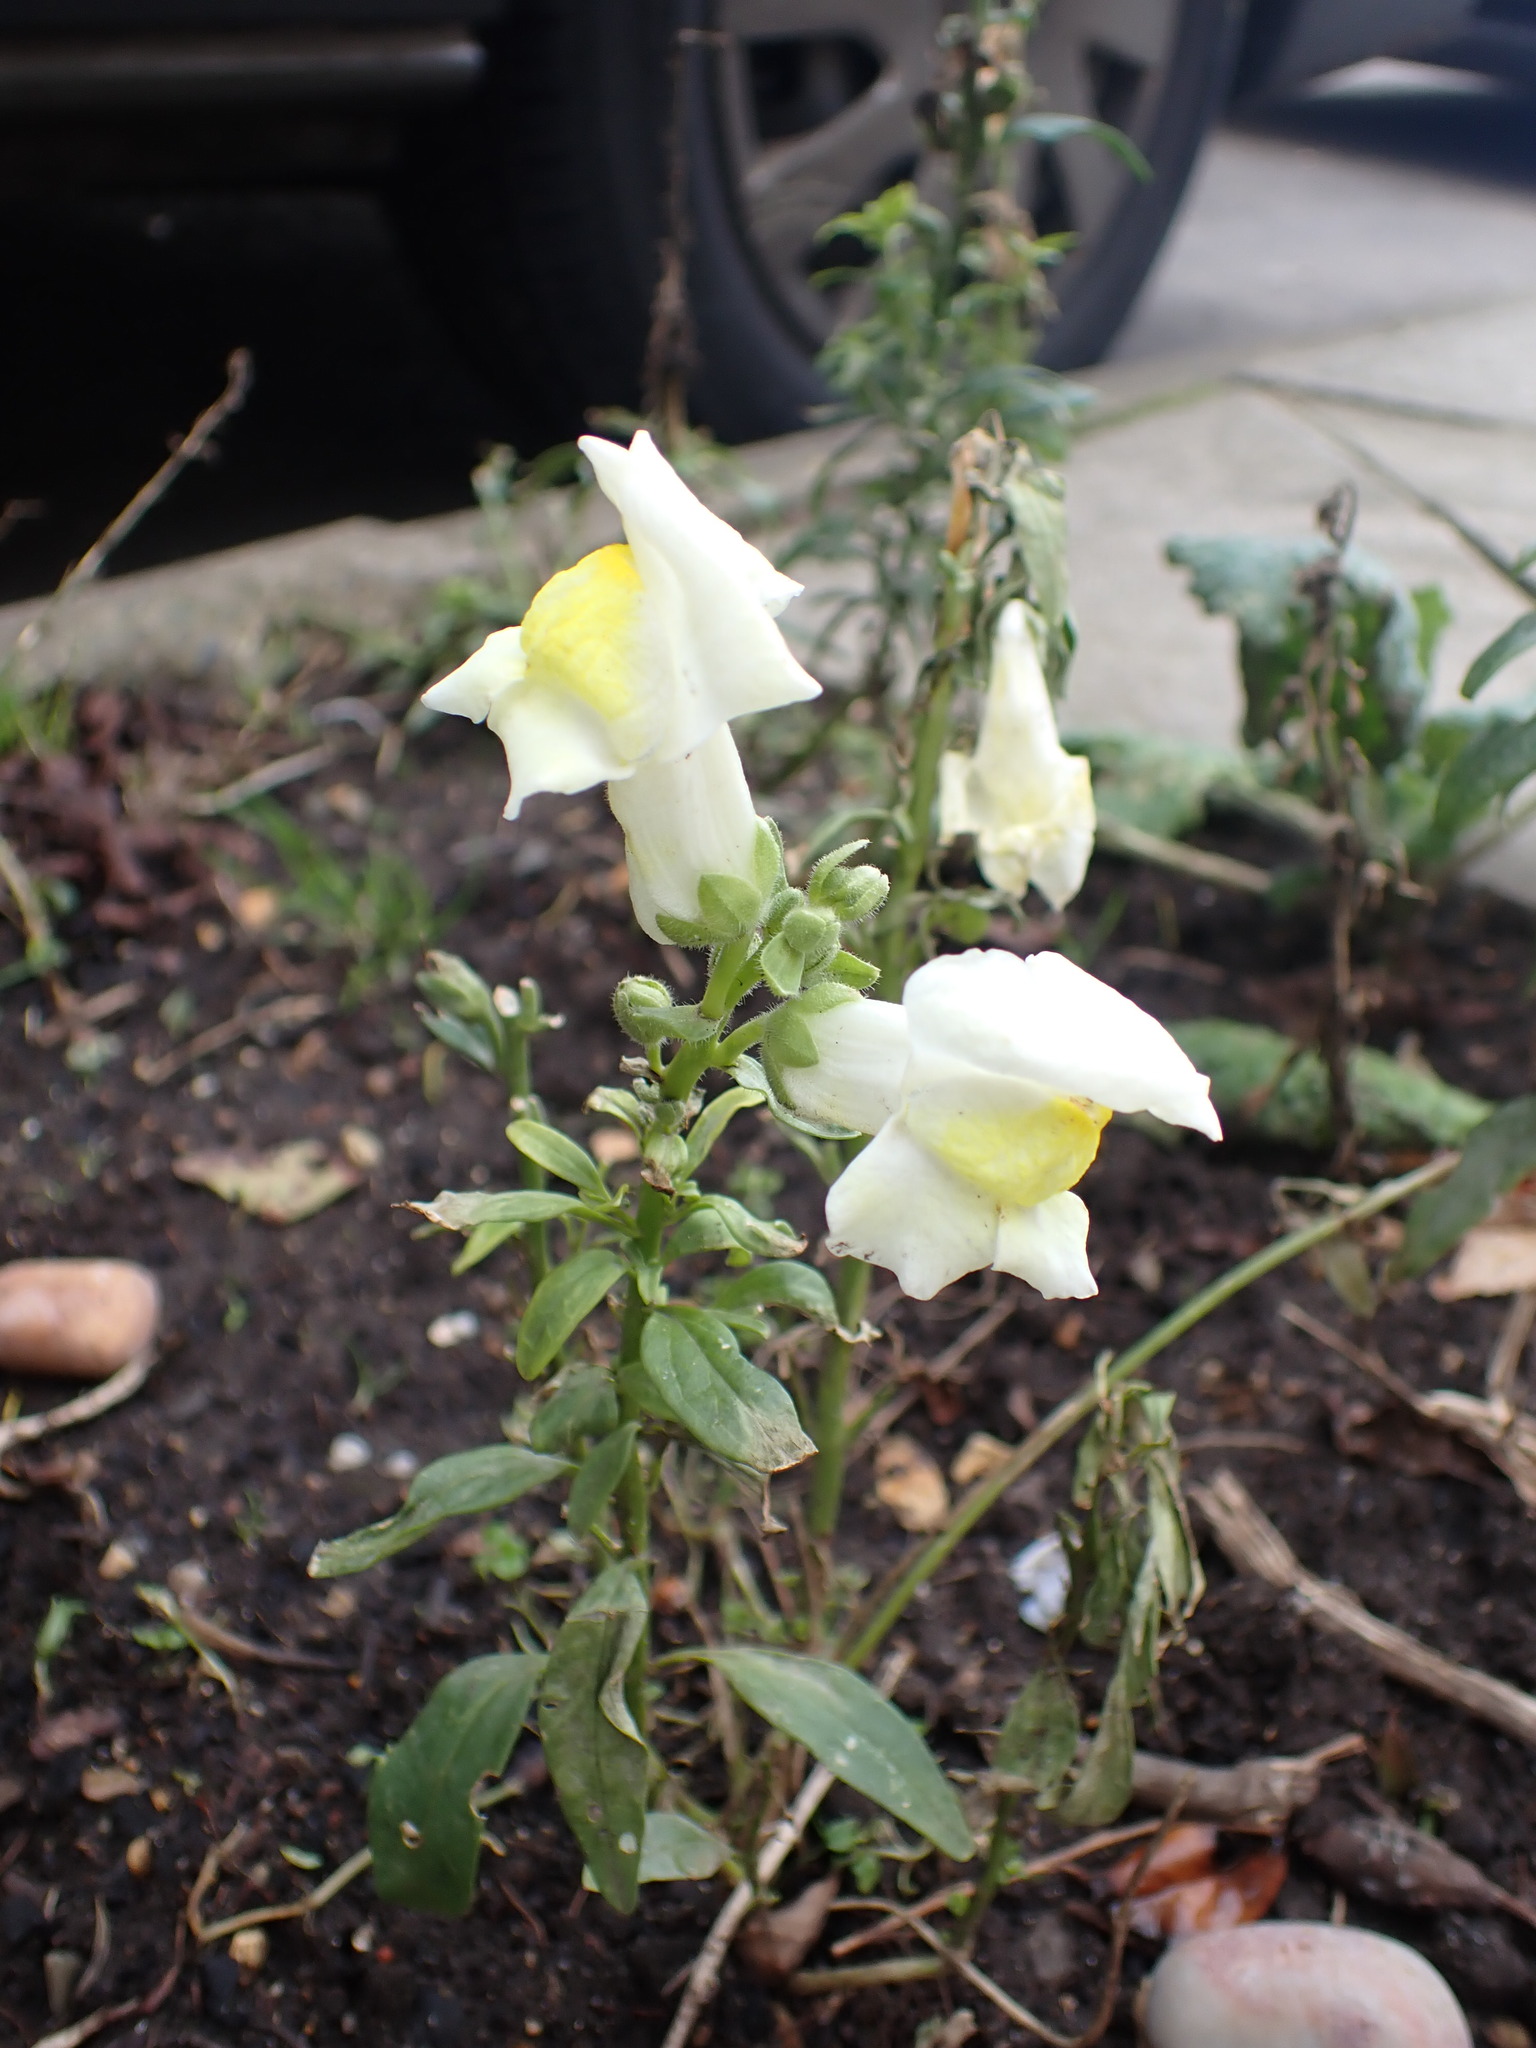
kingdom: Plantae
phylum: Tracheophyta
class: Magnoliopsida
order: Lamiales
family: Plantaginaceae
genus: Antirrhinum
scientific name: Antirrhinum majus
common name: Snapdragon
